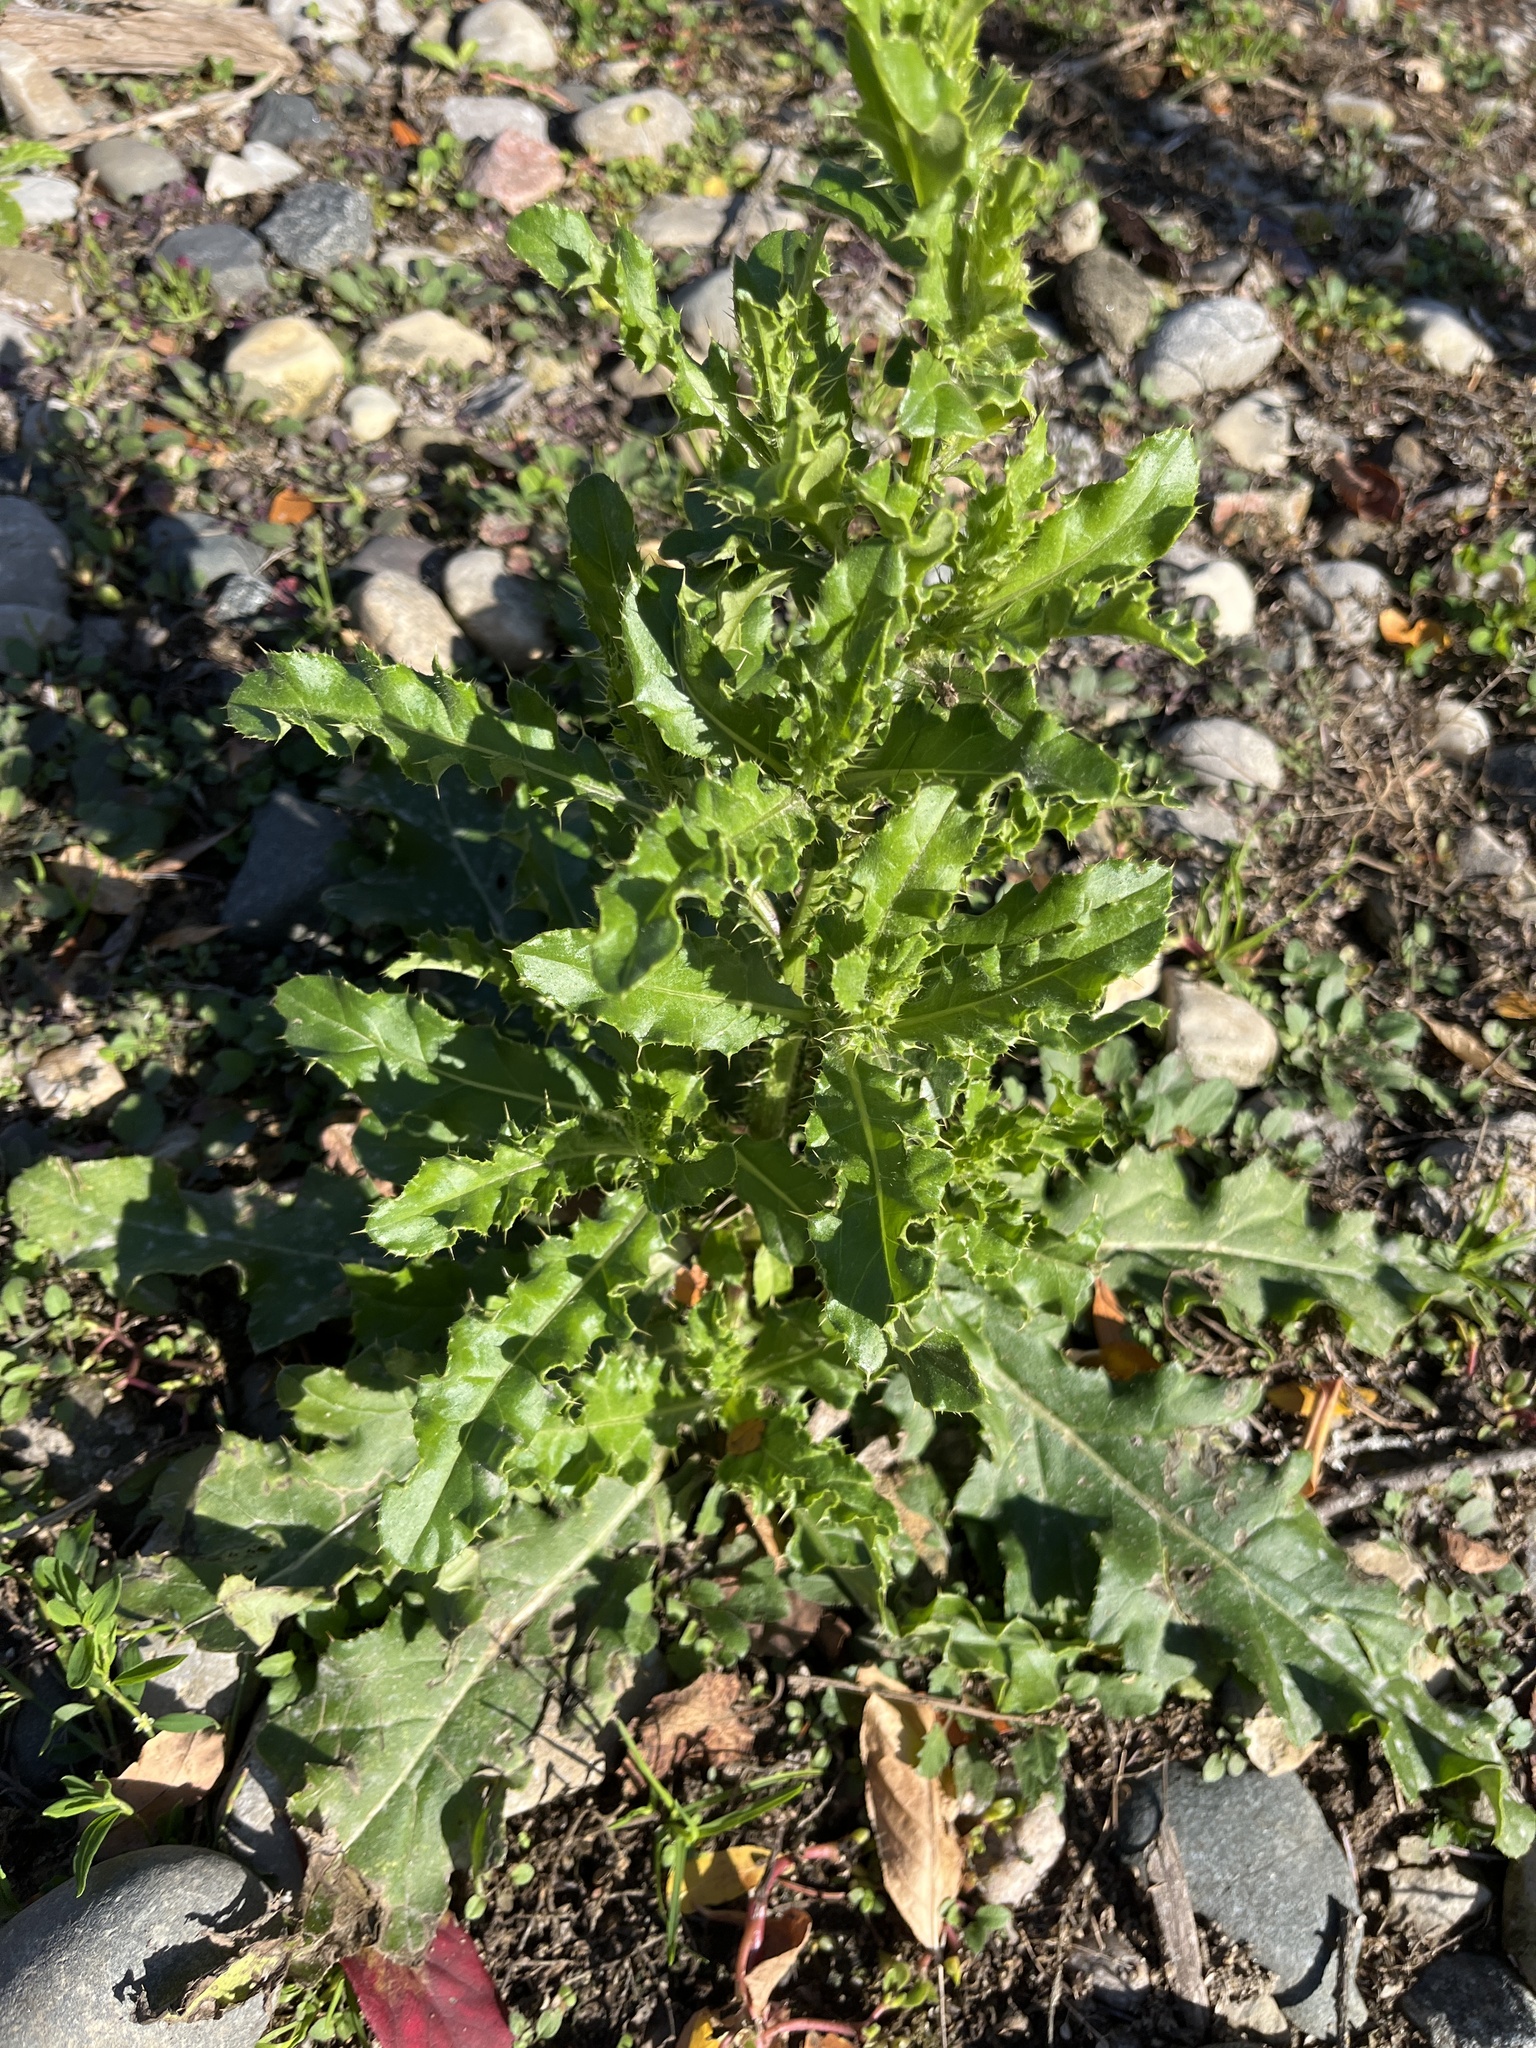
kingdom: Plantae
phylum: Tracheophyta
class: Magnoliopsida
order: Asterales
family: Asteraceae
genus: Cirsium
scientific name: Cirsium arvense
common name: Creeping thistle
